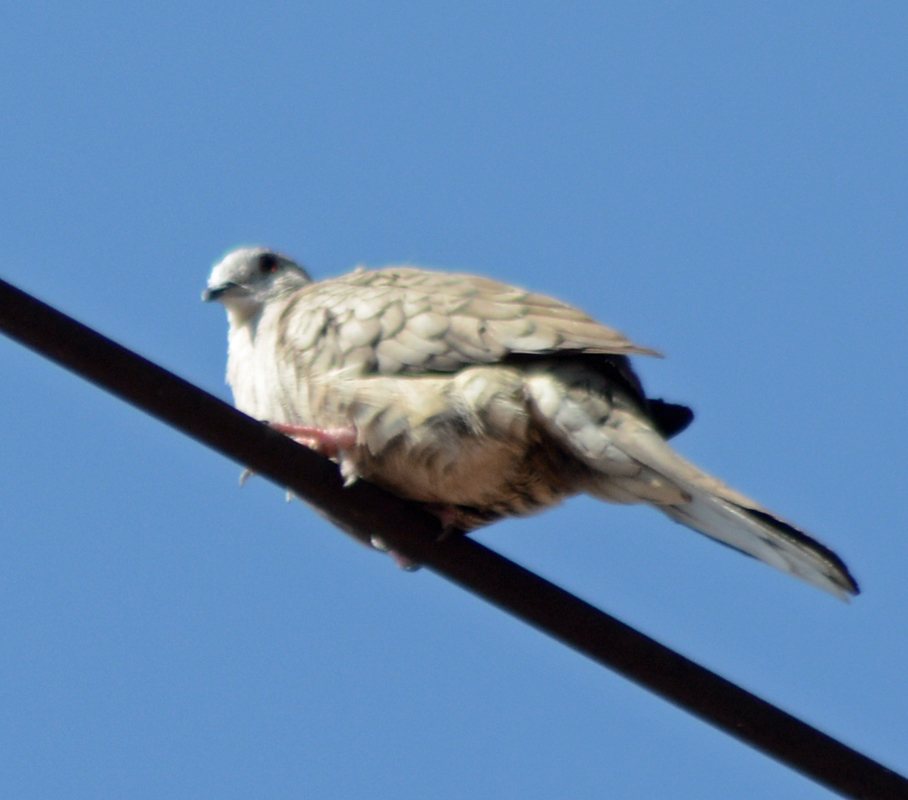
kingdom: Animalia
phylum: Chordata
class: Aves
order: Columbiformes
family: Columbidae
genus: Columbina
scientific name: Columbina inca
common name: Inca dove
